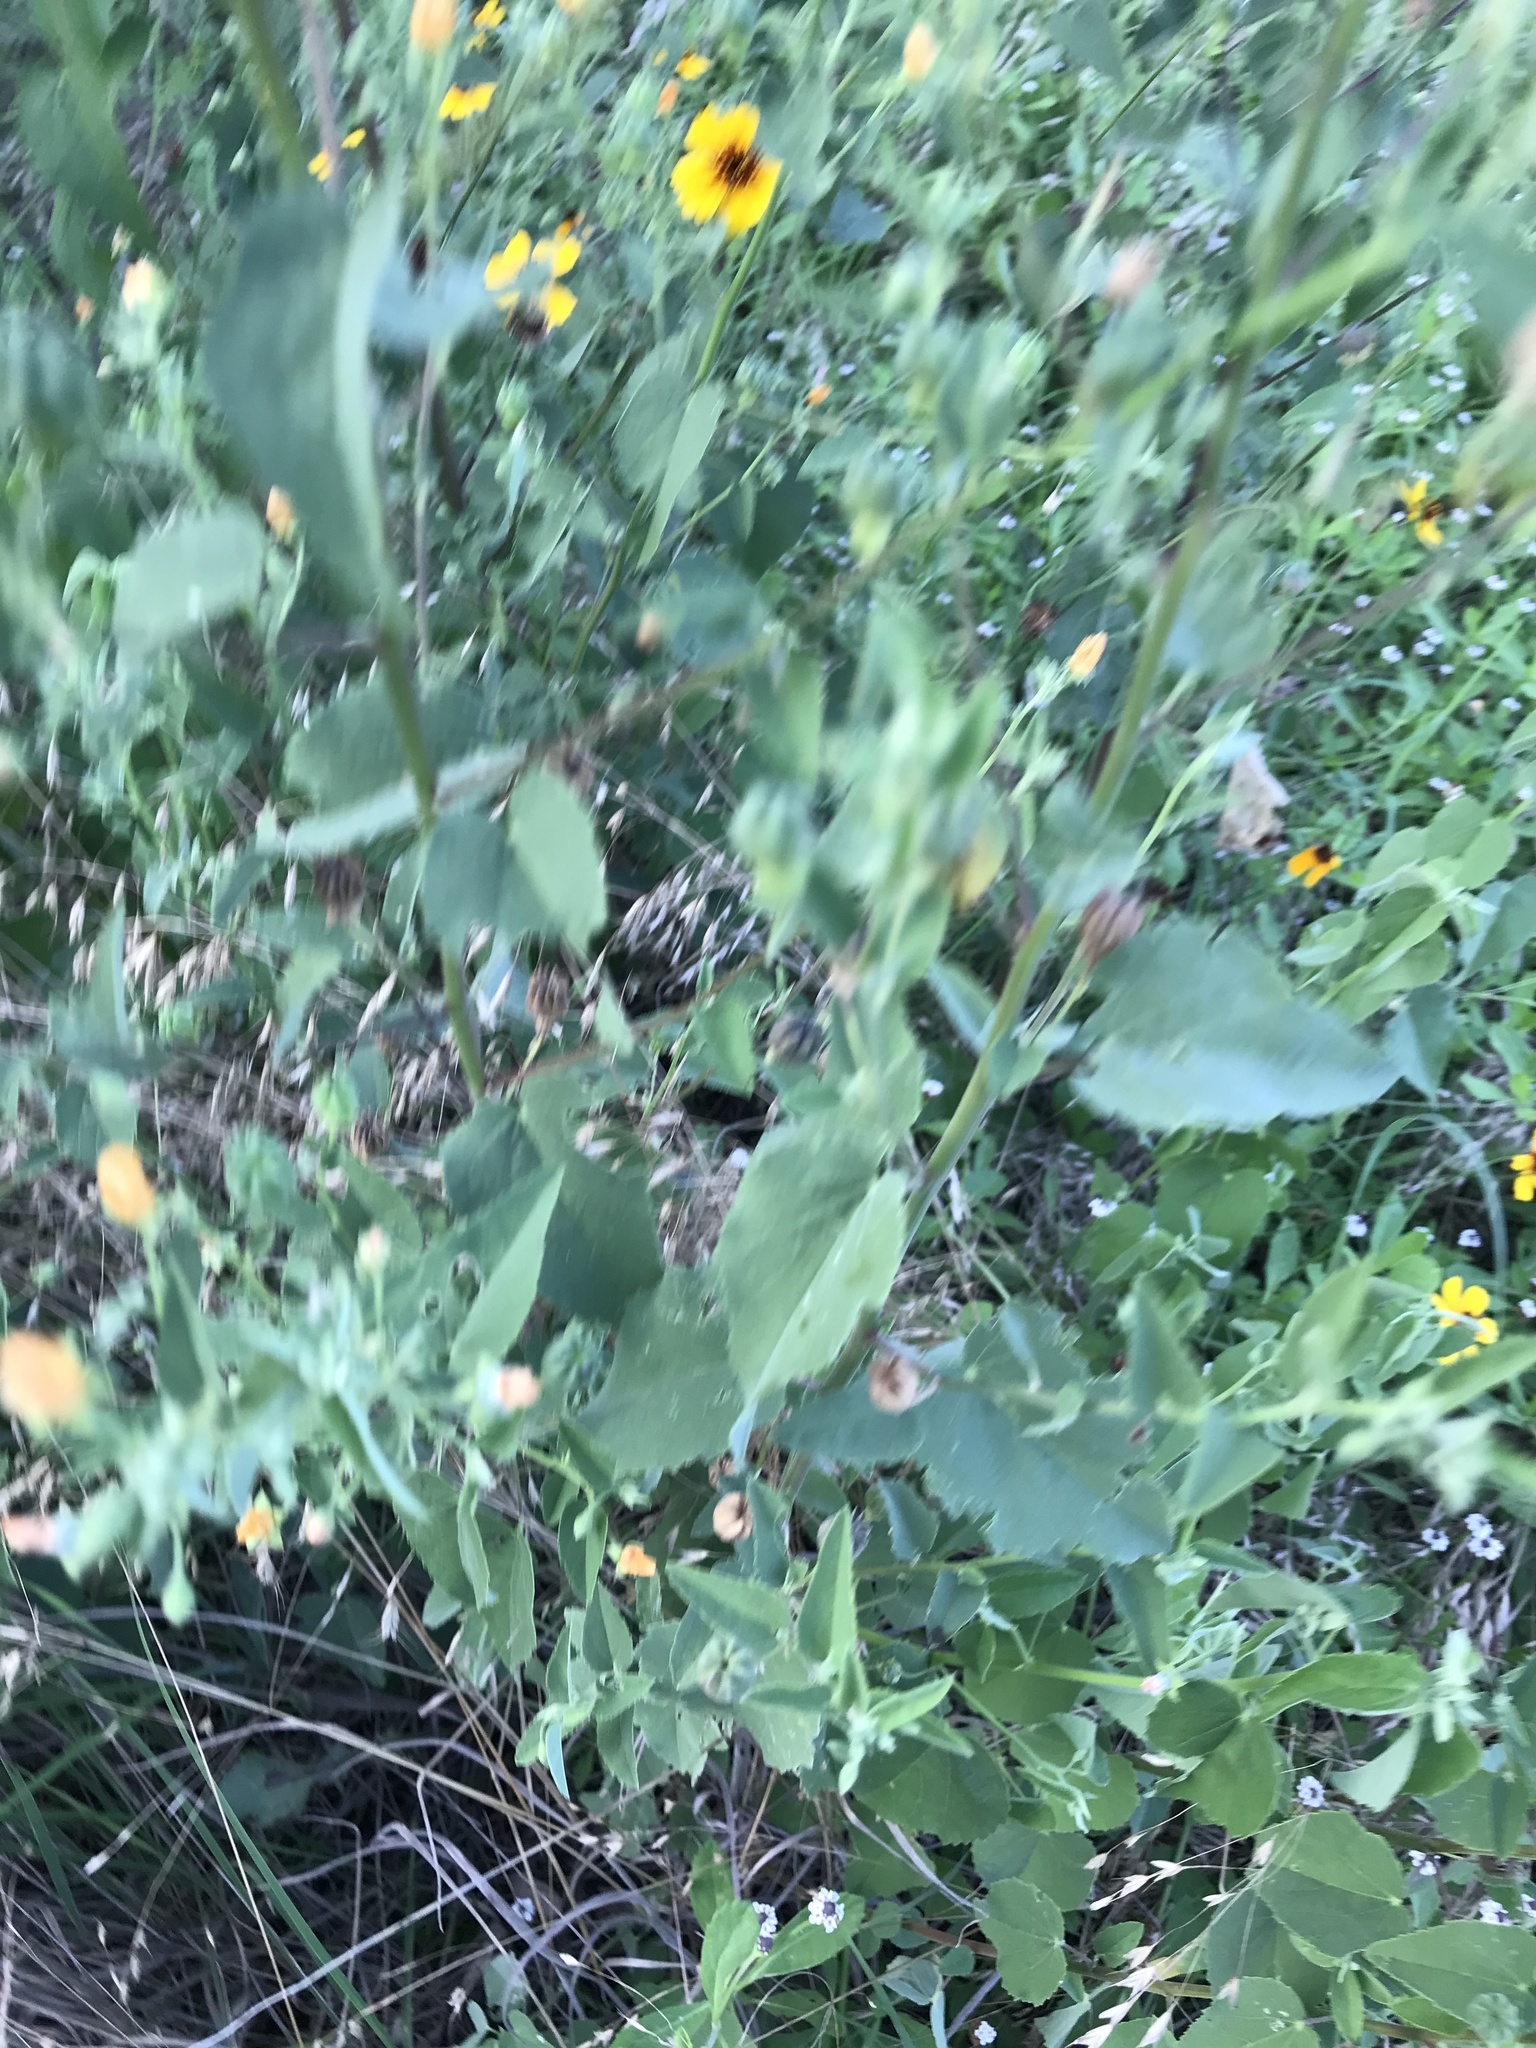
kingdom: Plantae
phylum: Tracheophyta
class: Magnoliopsida
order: Malvales
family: Malvaceae
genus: Abutilon
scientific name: Abutilon fruticosum
